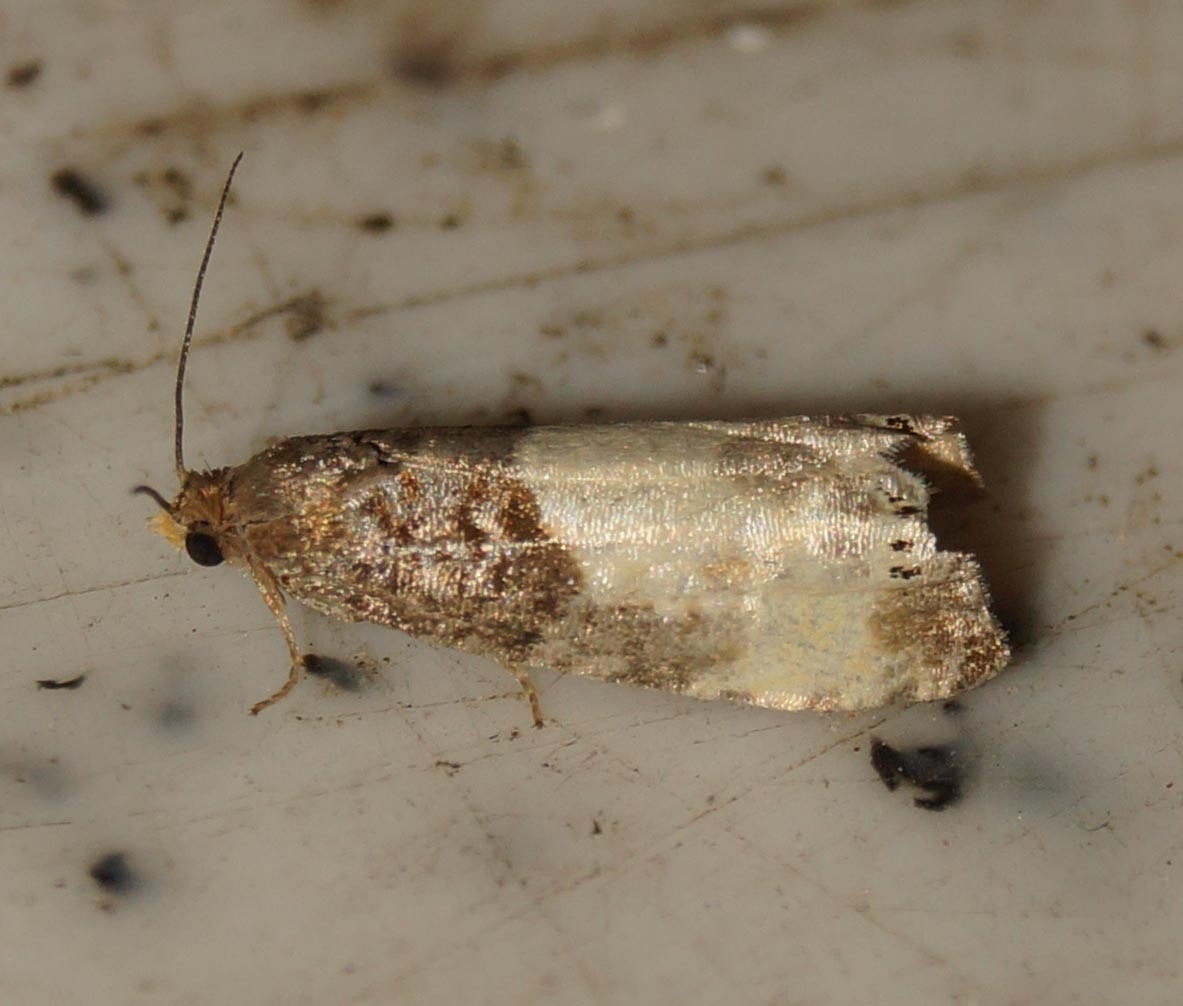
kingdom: Animalia
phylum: Arthropoda
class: Insecta
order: Lepidoptera
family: Tortricidae
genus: Notocelia
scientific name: Notocelia cynosbatella
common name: Yellow-faced bell moth
